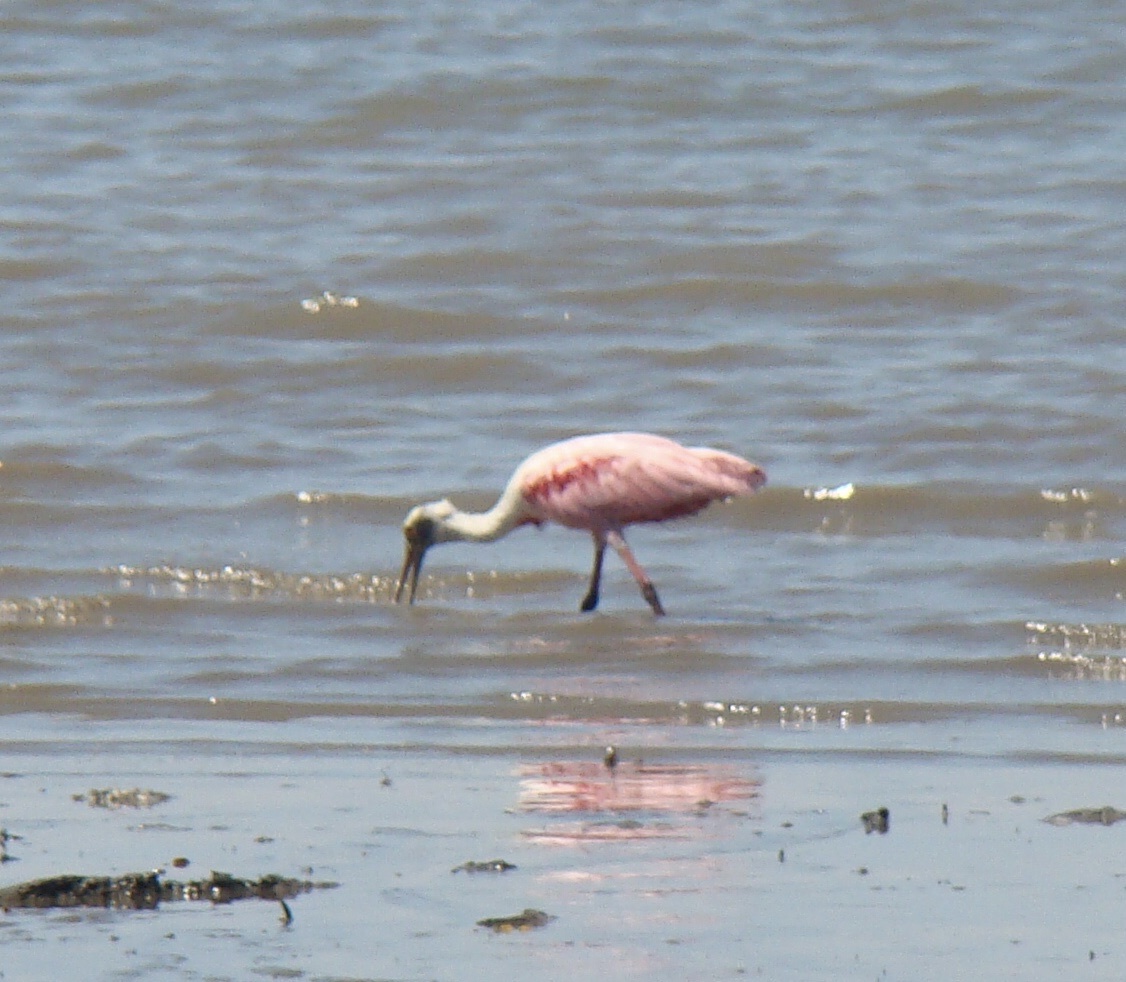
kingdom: Animalia
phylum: Chordata
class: Aves
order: Pelecaniformes
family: Threskiornithidae
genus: Platalea
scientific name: Platalea ajaja
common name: Roseate spoonbill
